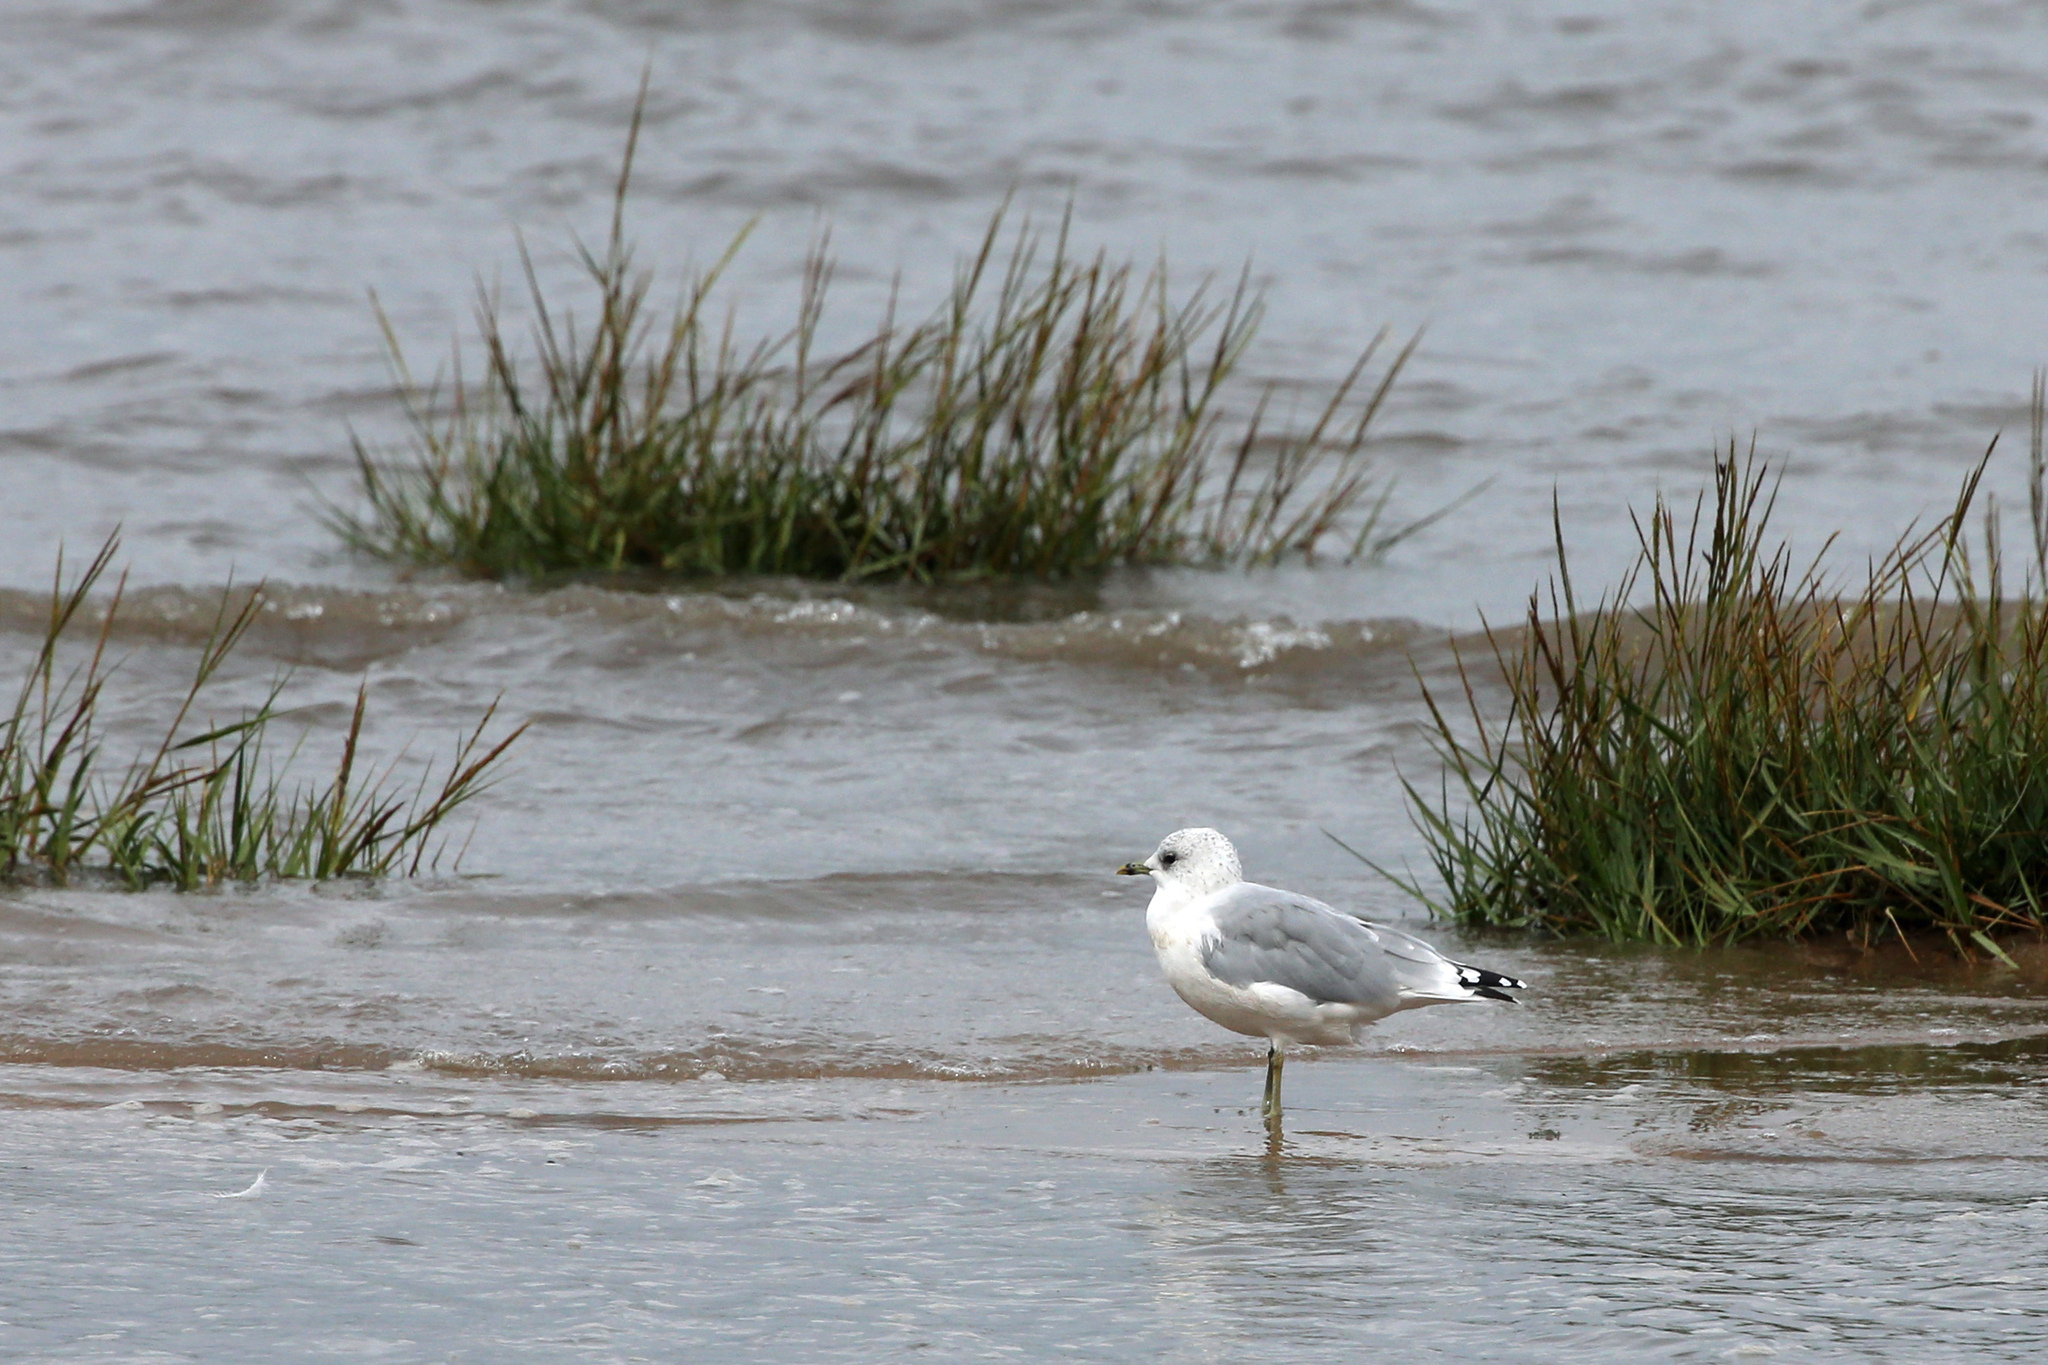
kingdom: Animalia
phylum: Chordata
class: Aves
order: Charadriiformes
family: Laridae
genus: Larus
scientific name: Larus canus
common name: Mew gull
